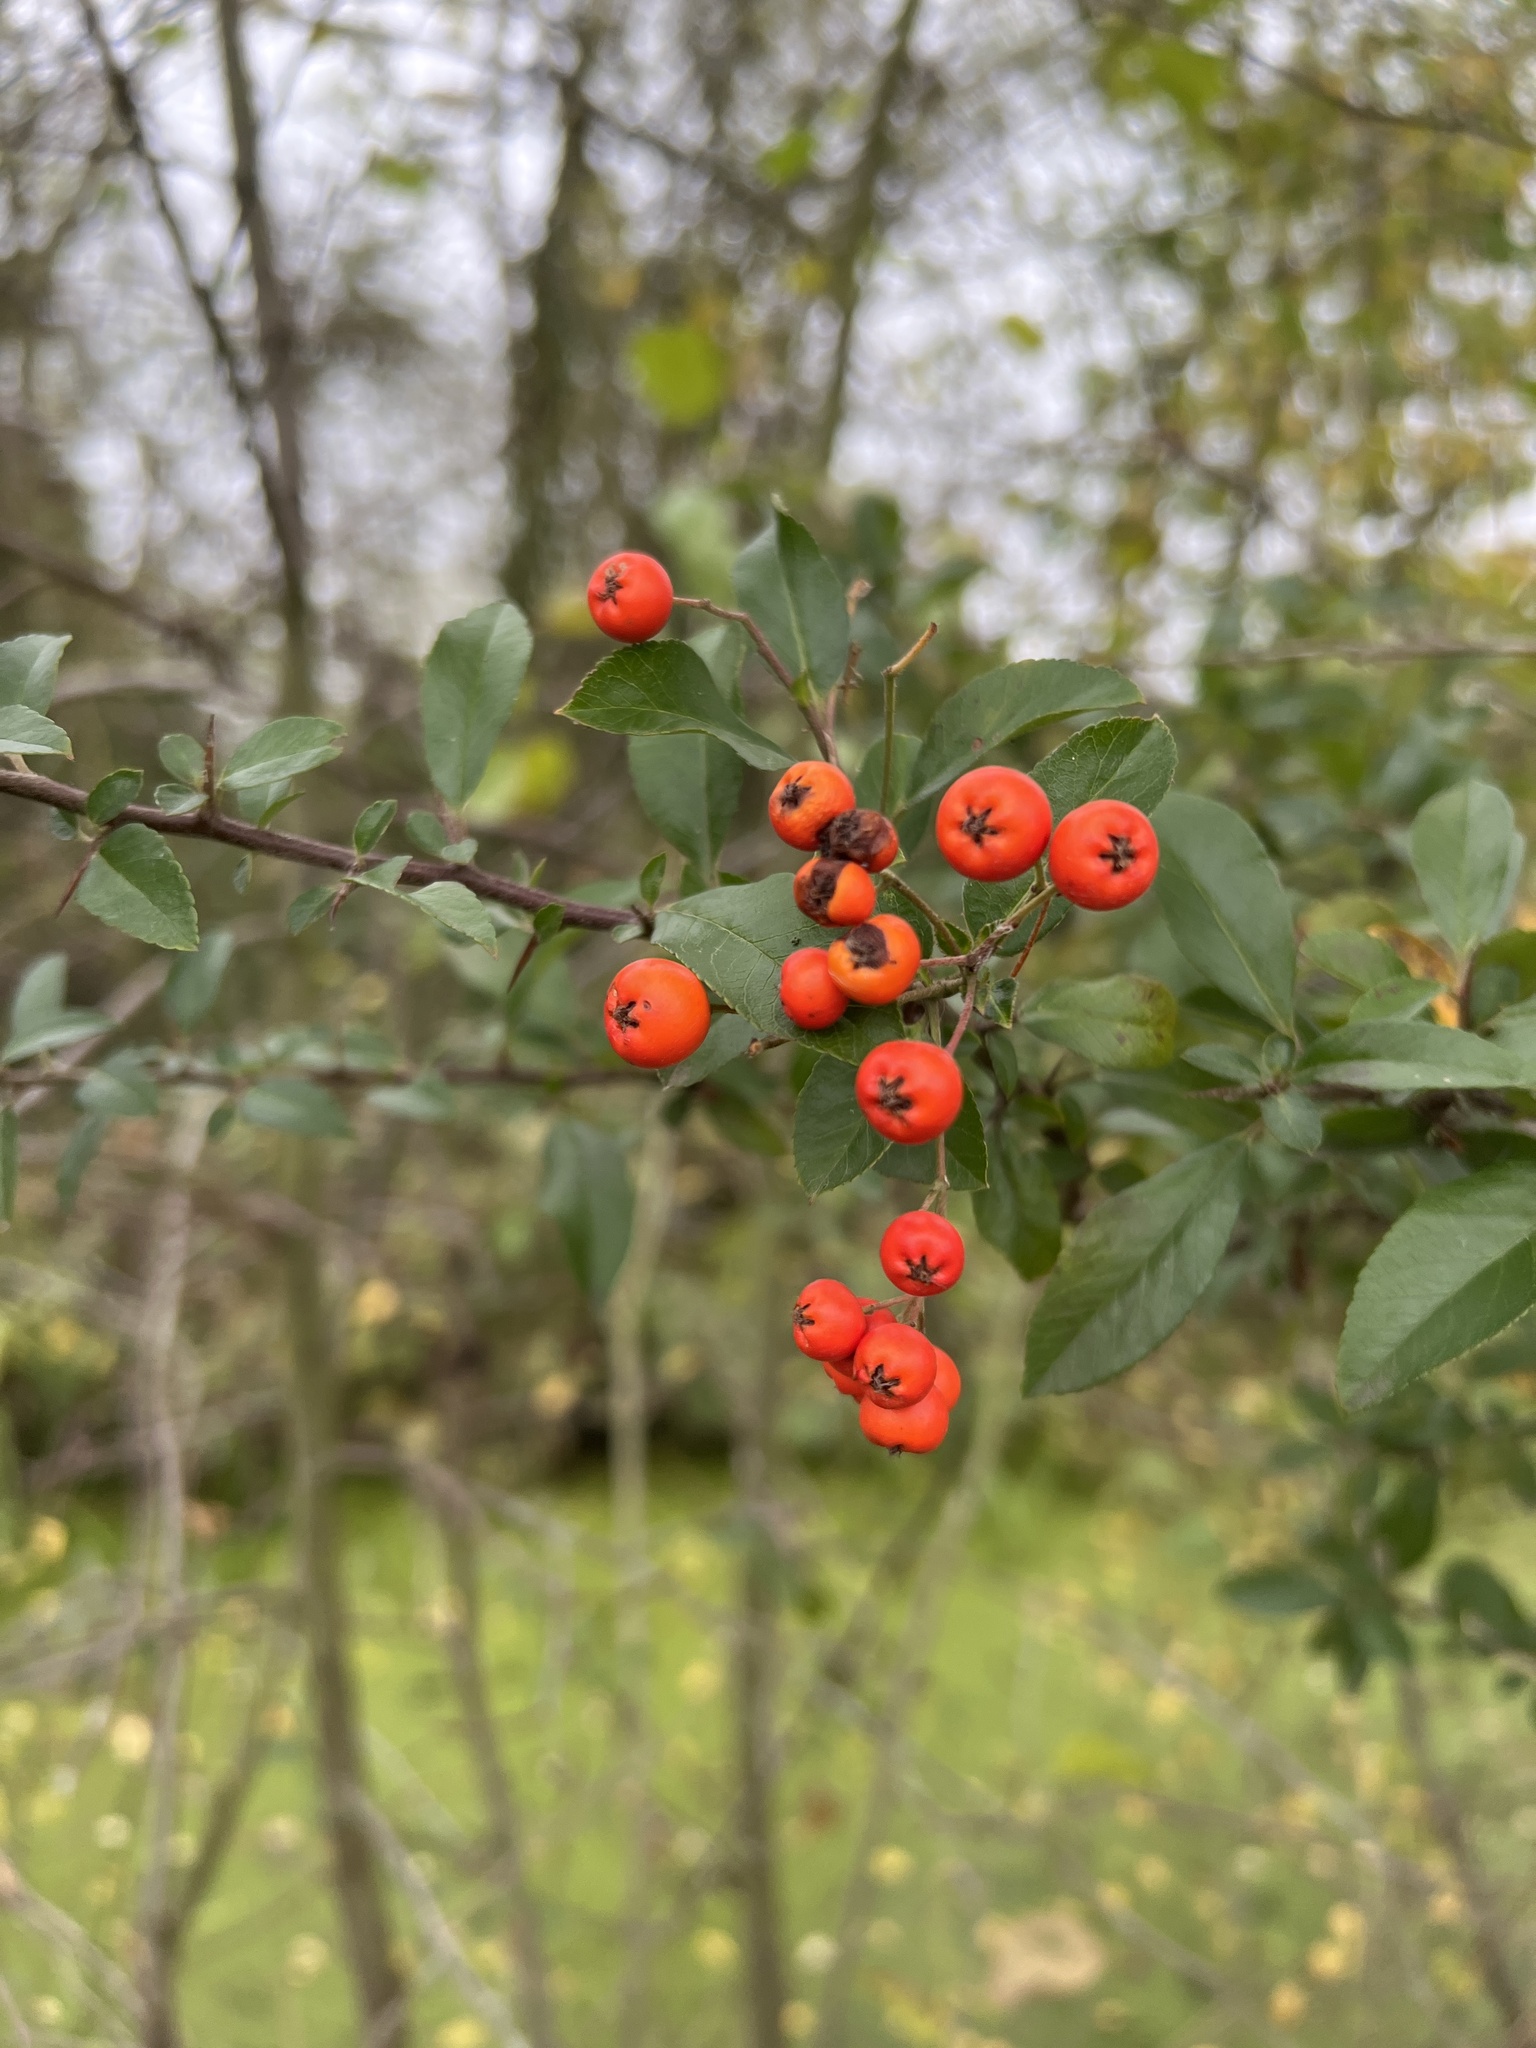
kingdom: Plantae
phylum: Tracheophyta
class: Magnoliopsida
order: Rosales
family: Rosaceae
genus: Pyracantha
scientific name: Pyracantha coccinea
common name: Firethorn
